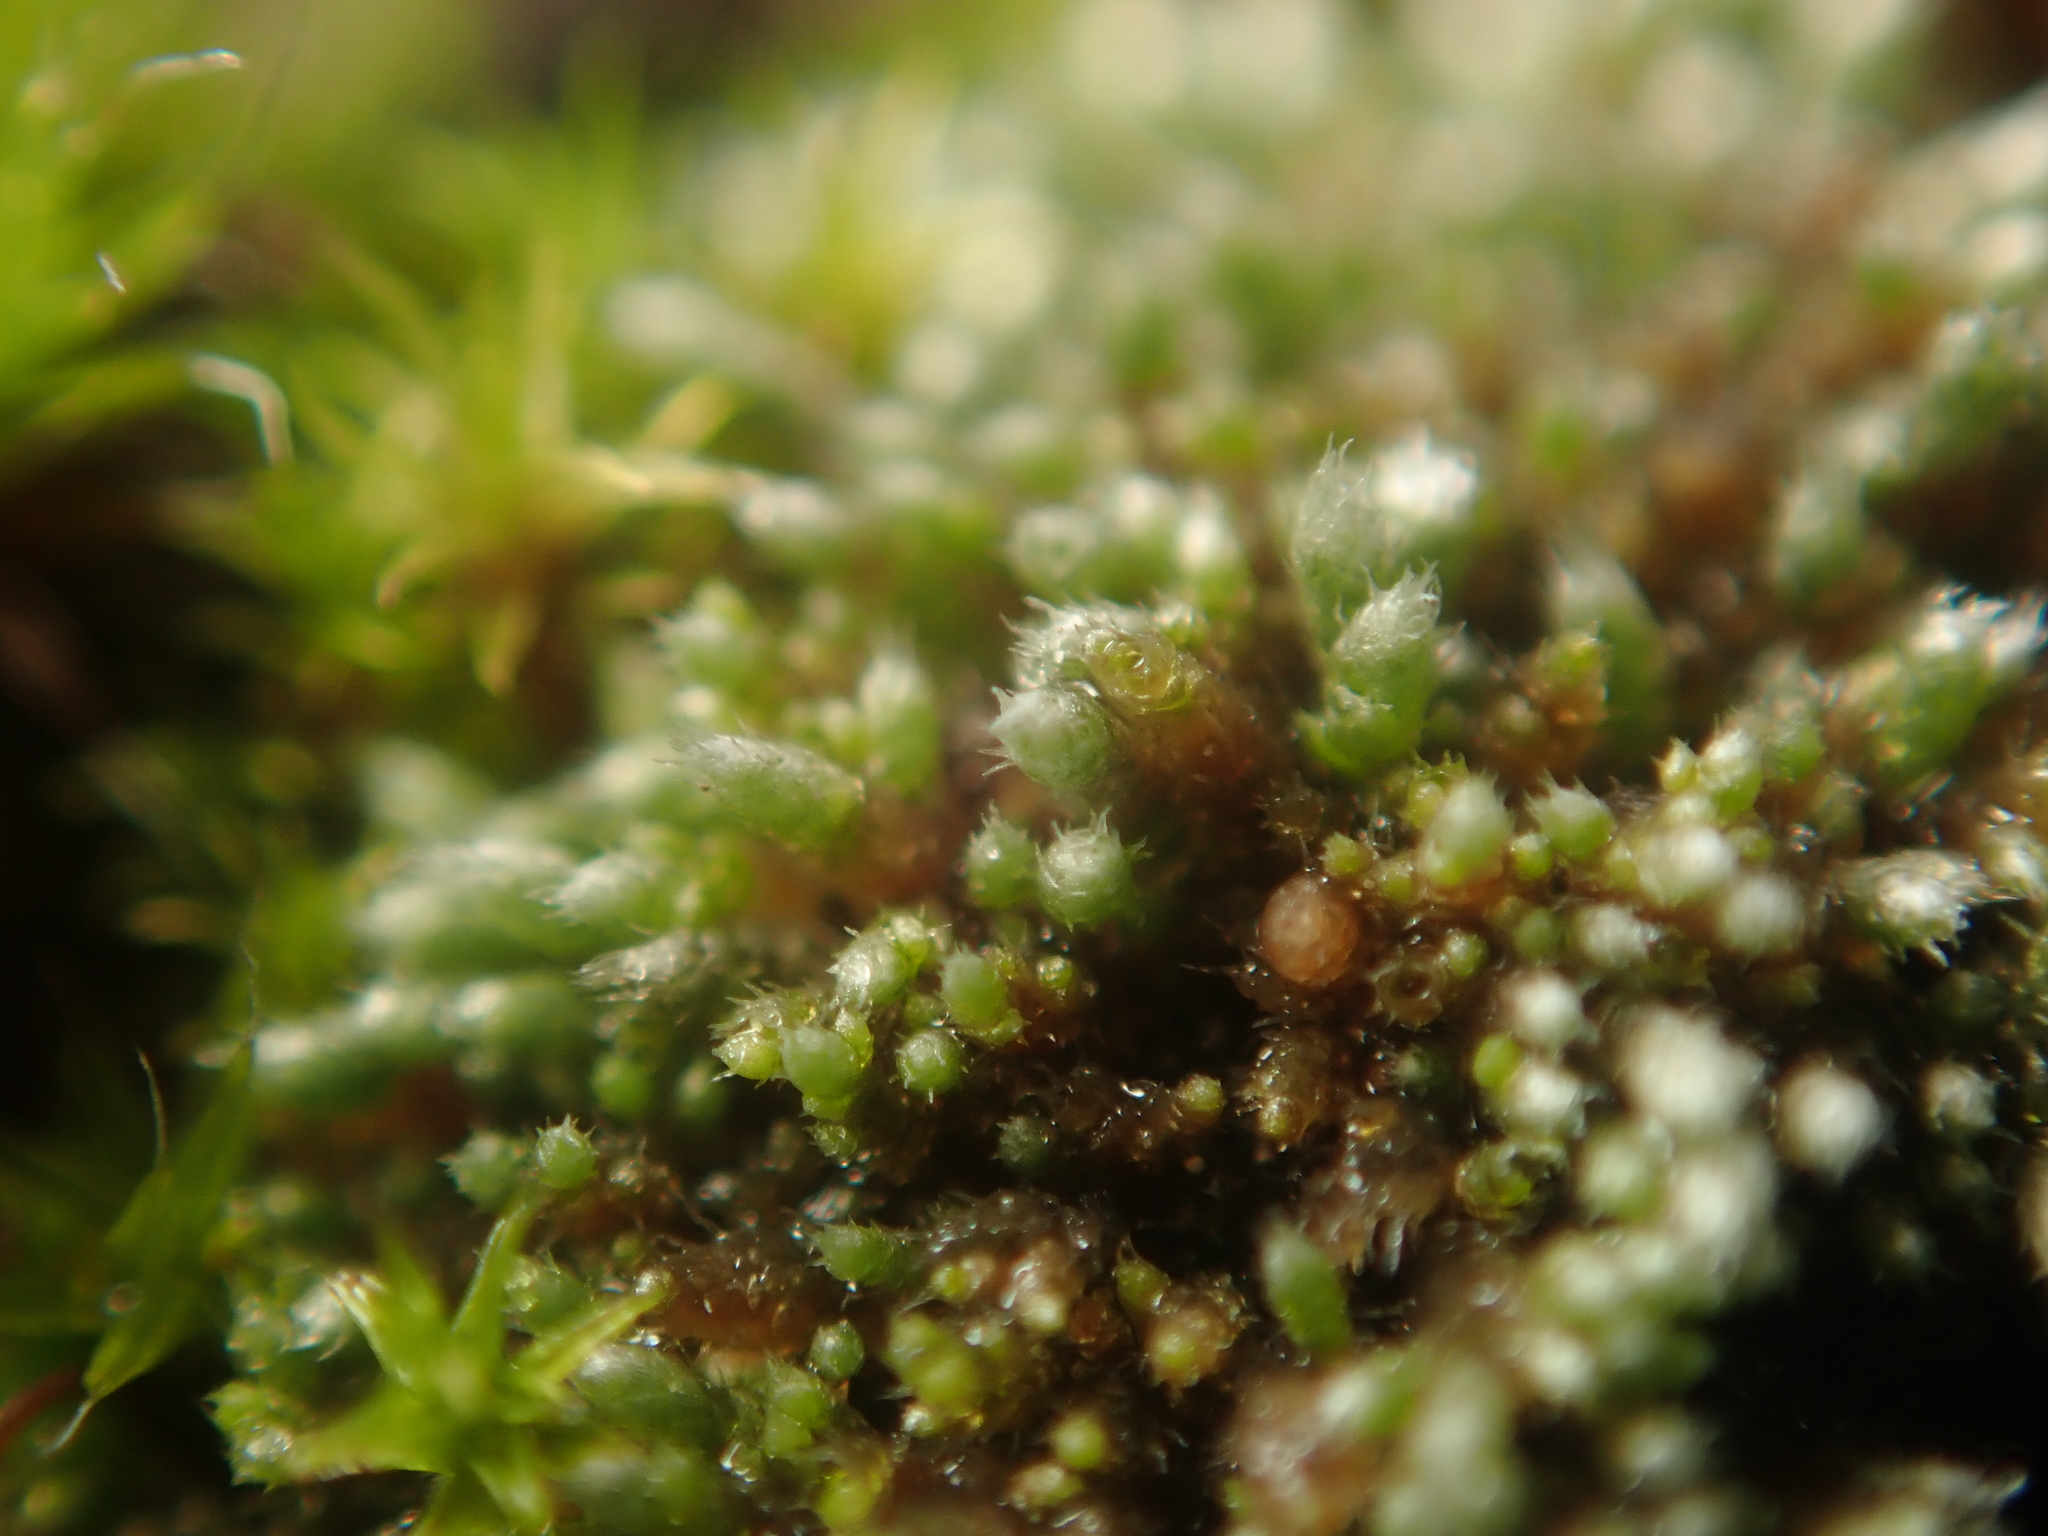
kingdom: Plantae
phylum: Bryophyta
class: Bryopsida
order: Bryales
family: Bryaceae
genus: Bryum
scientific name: Bryum argenteum
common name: Silver-moss
